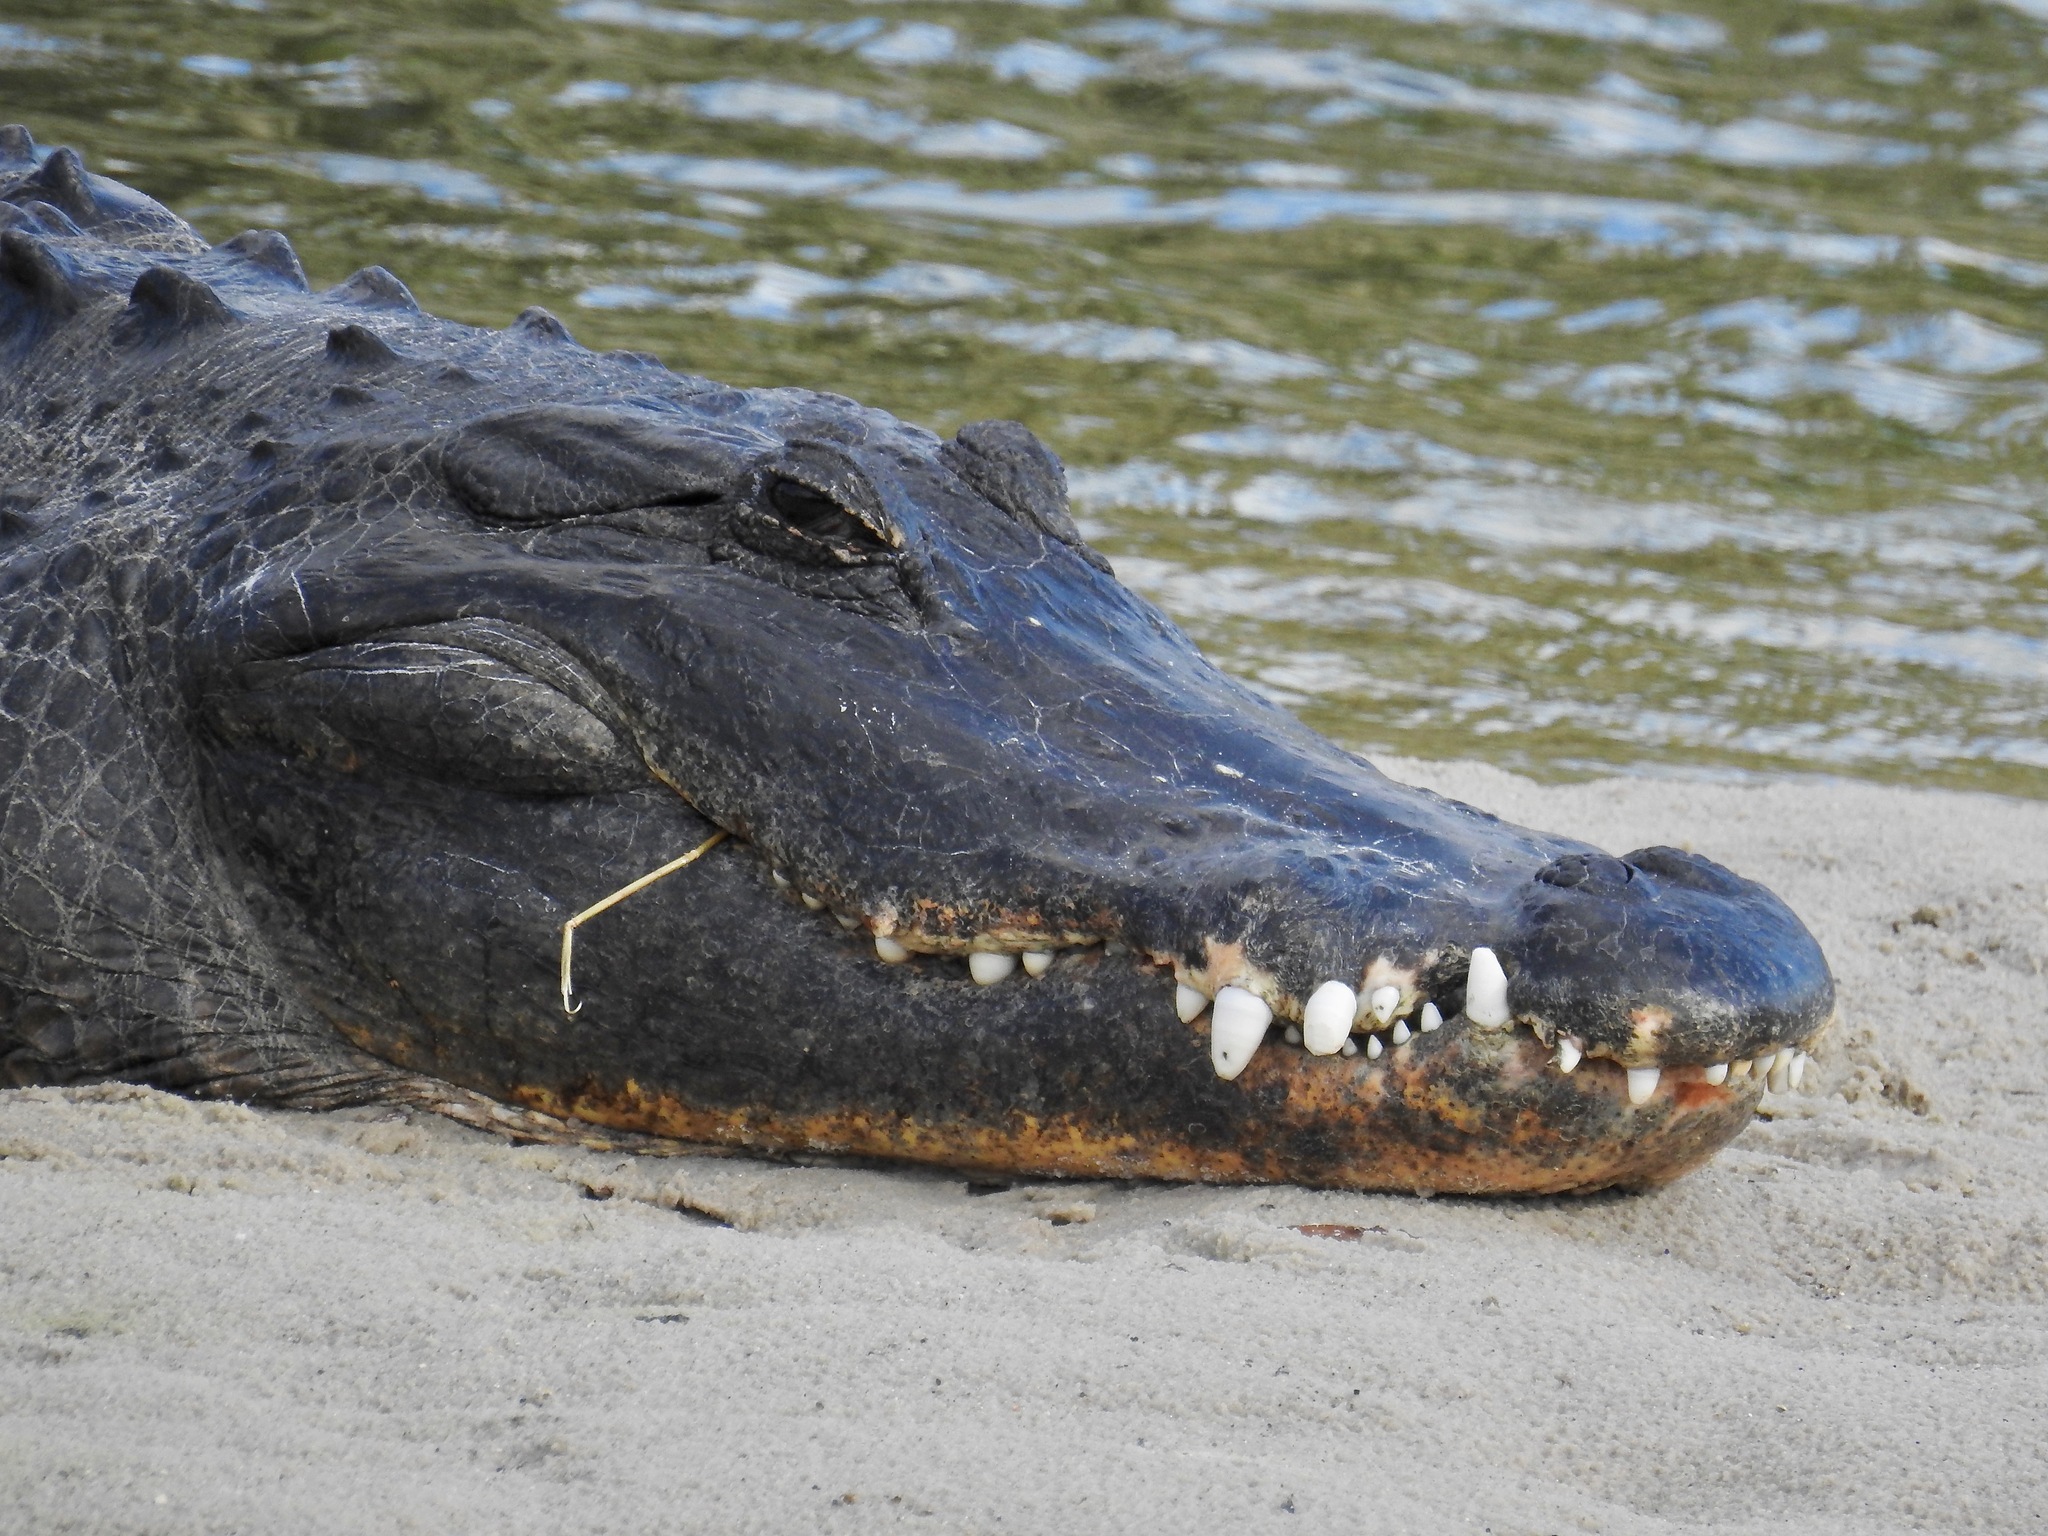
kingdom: Animalia
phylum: Chordata
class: Crocodylia
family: Alligatoridae
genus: Alligator
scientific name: Alligator mississippiensis
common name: American alligator
